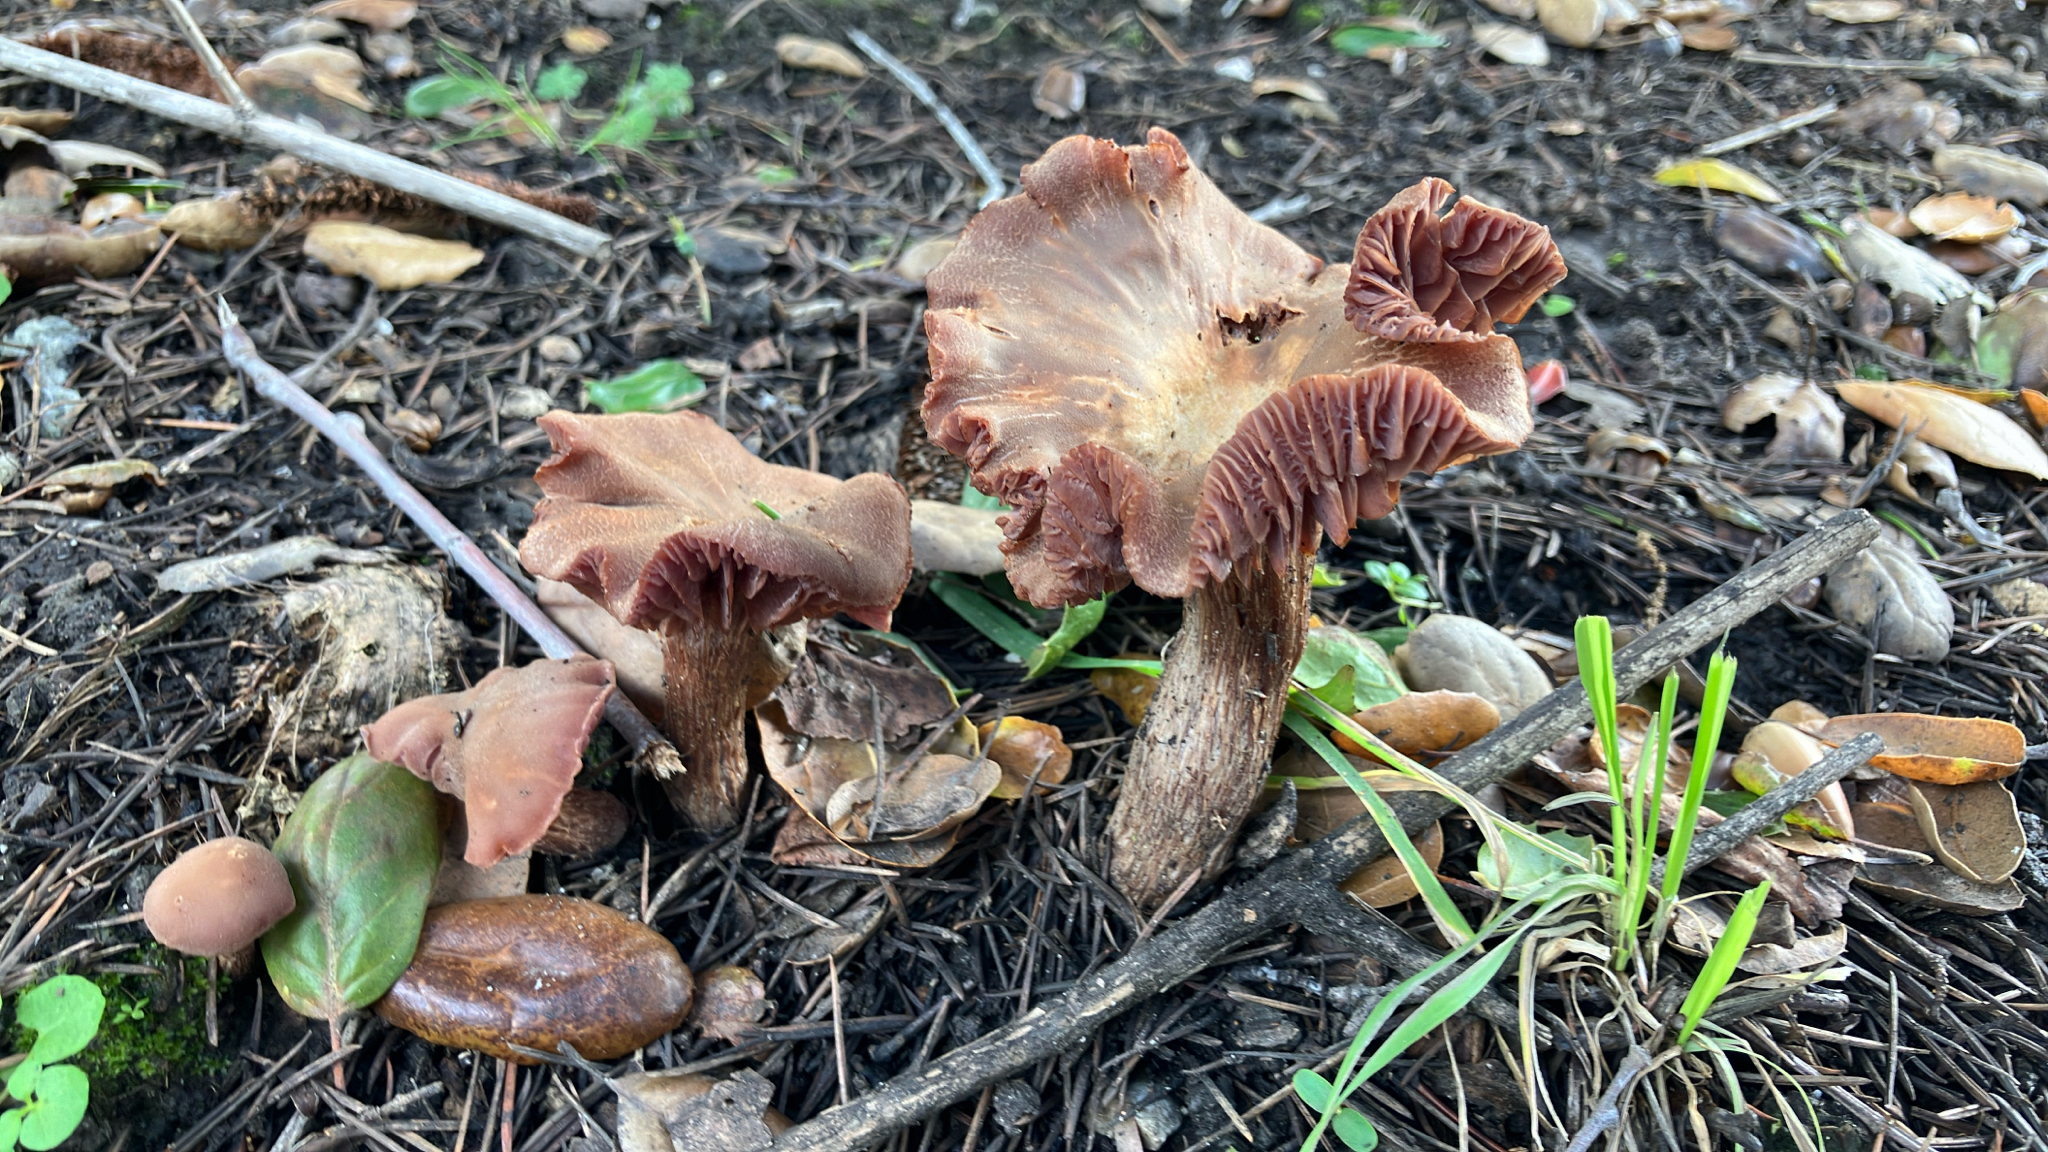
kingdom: Fungi
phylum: Basidiomycota
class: Agaricomycetes
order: Agaricales
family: Hydnangiaceae
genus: Laccaria
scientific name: Laccaria amethysteo-occidentalis
